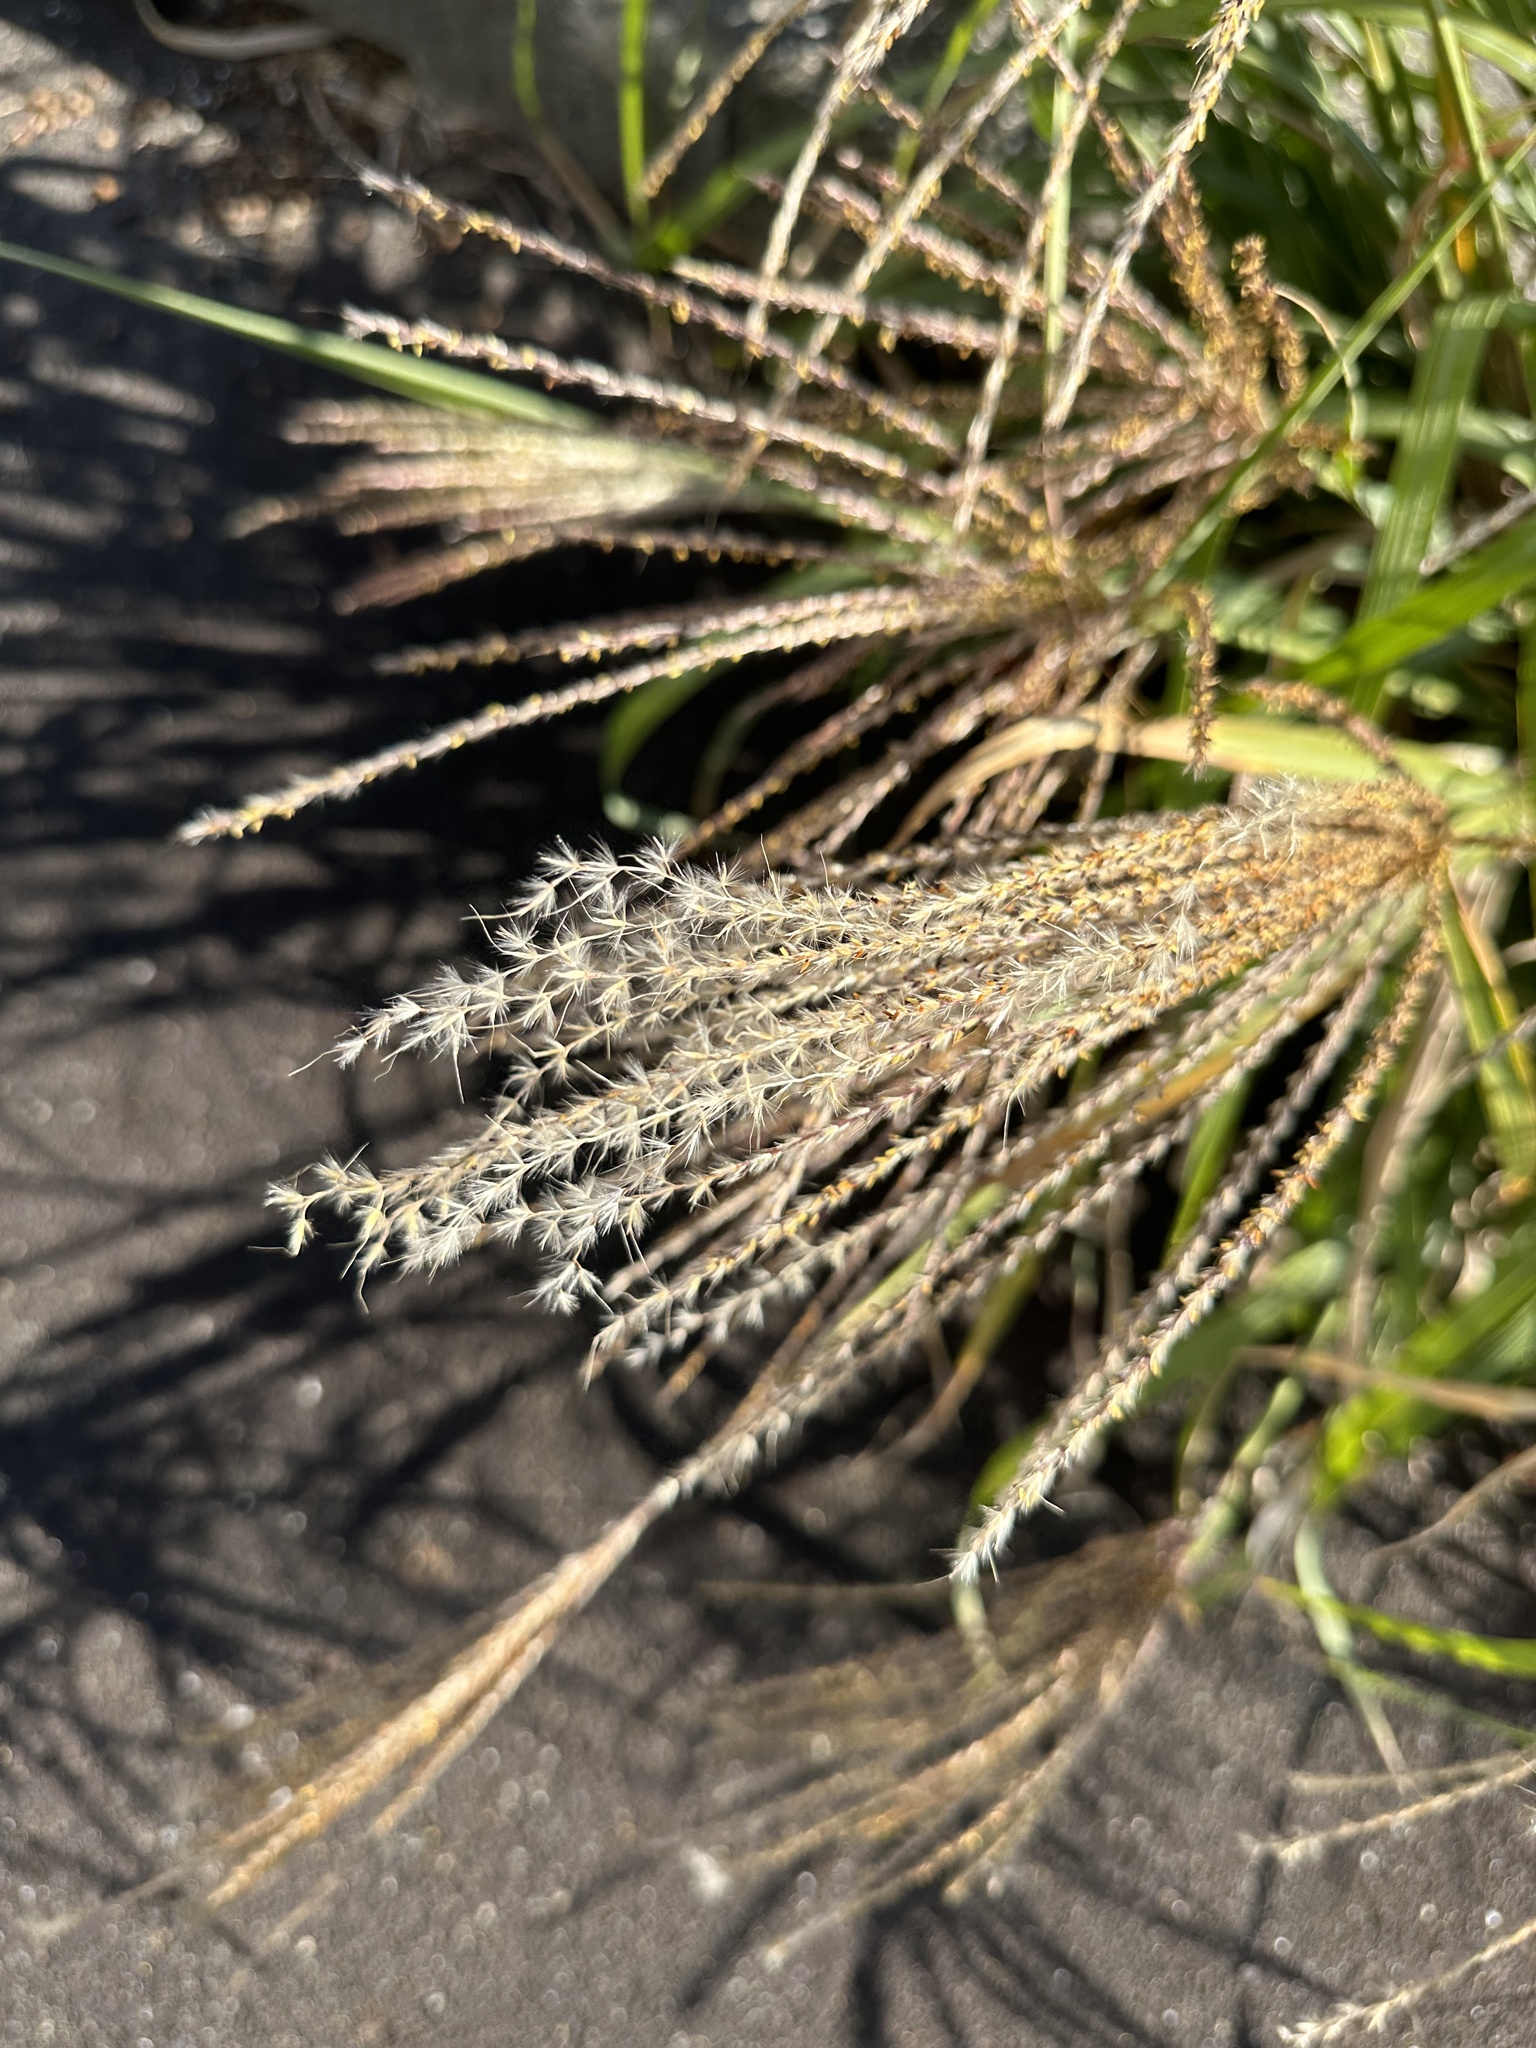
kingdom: Plantae
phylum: Tracheophyta
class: Liliopsida
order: Poales
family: Poaceae
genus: Miscanthus
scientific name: Miscanthus sinensis
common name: Chinese silvergrass
